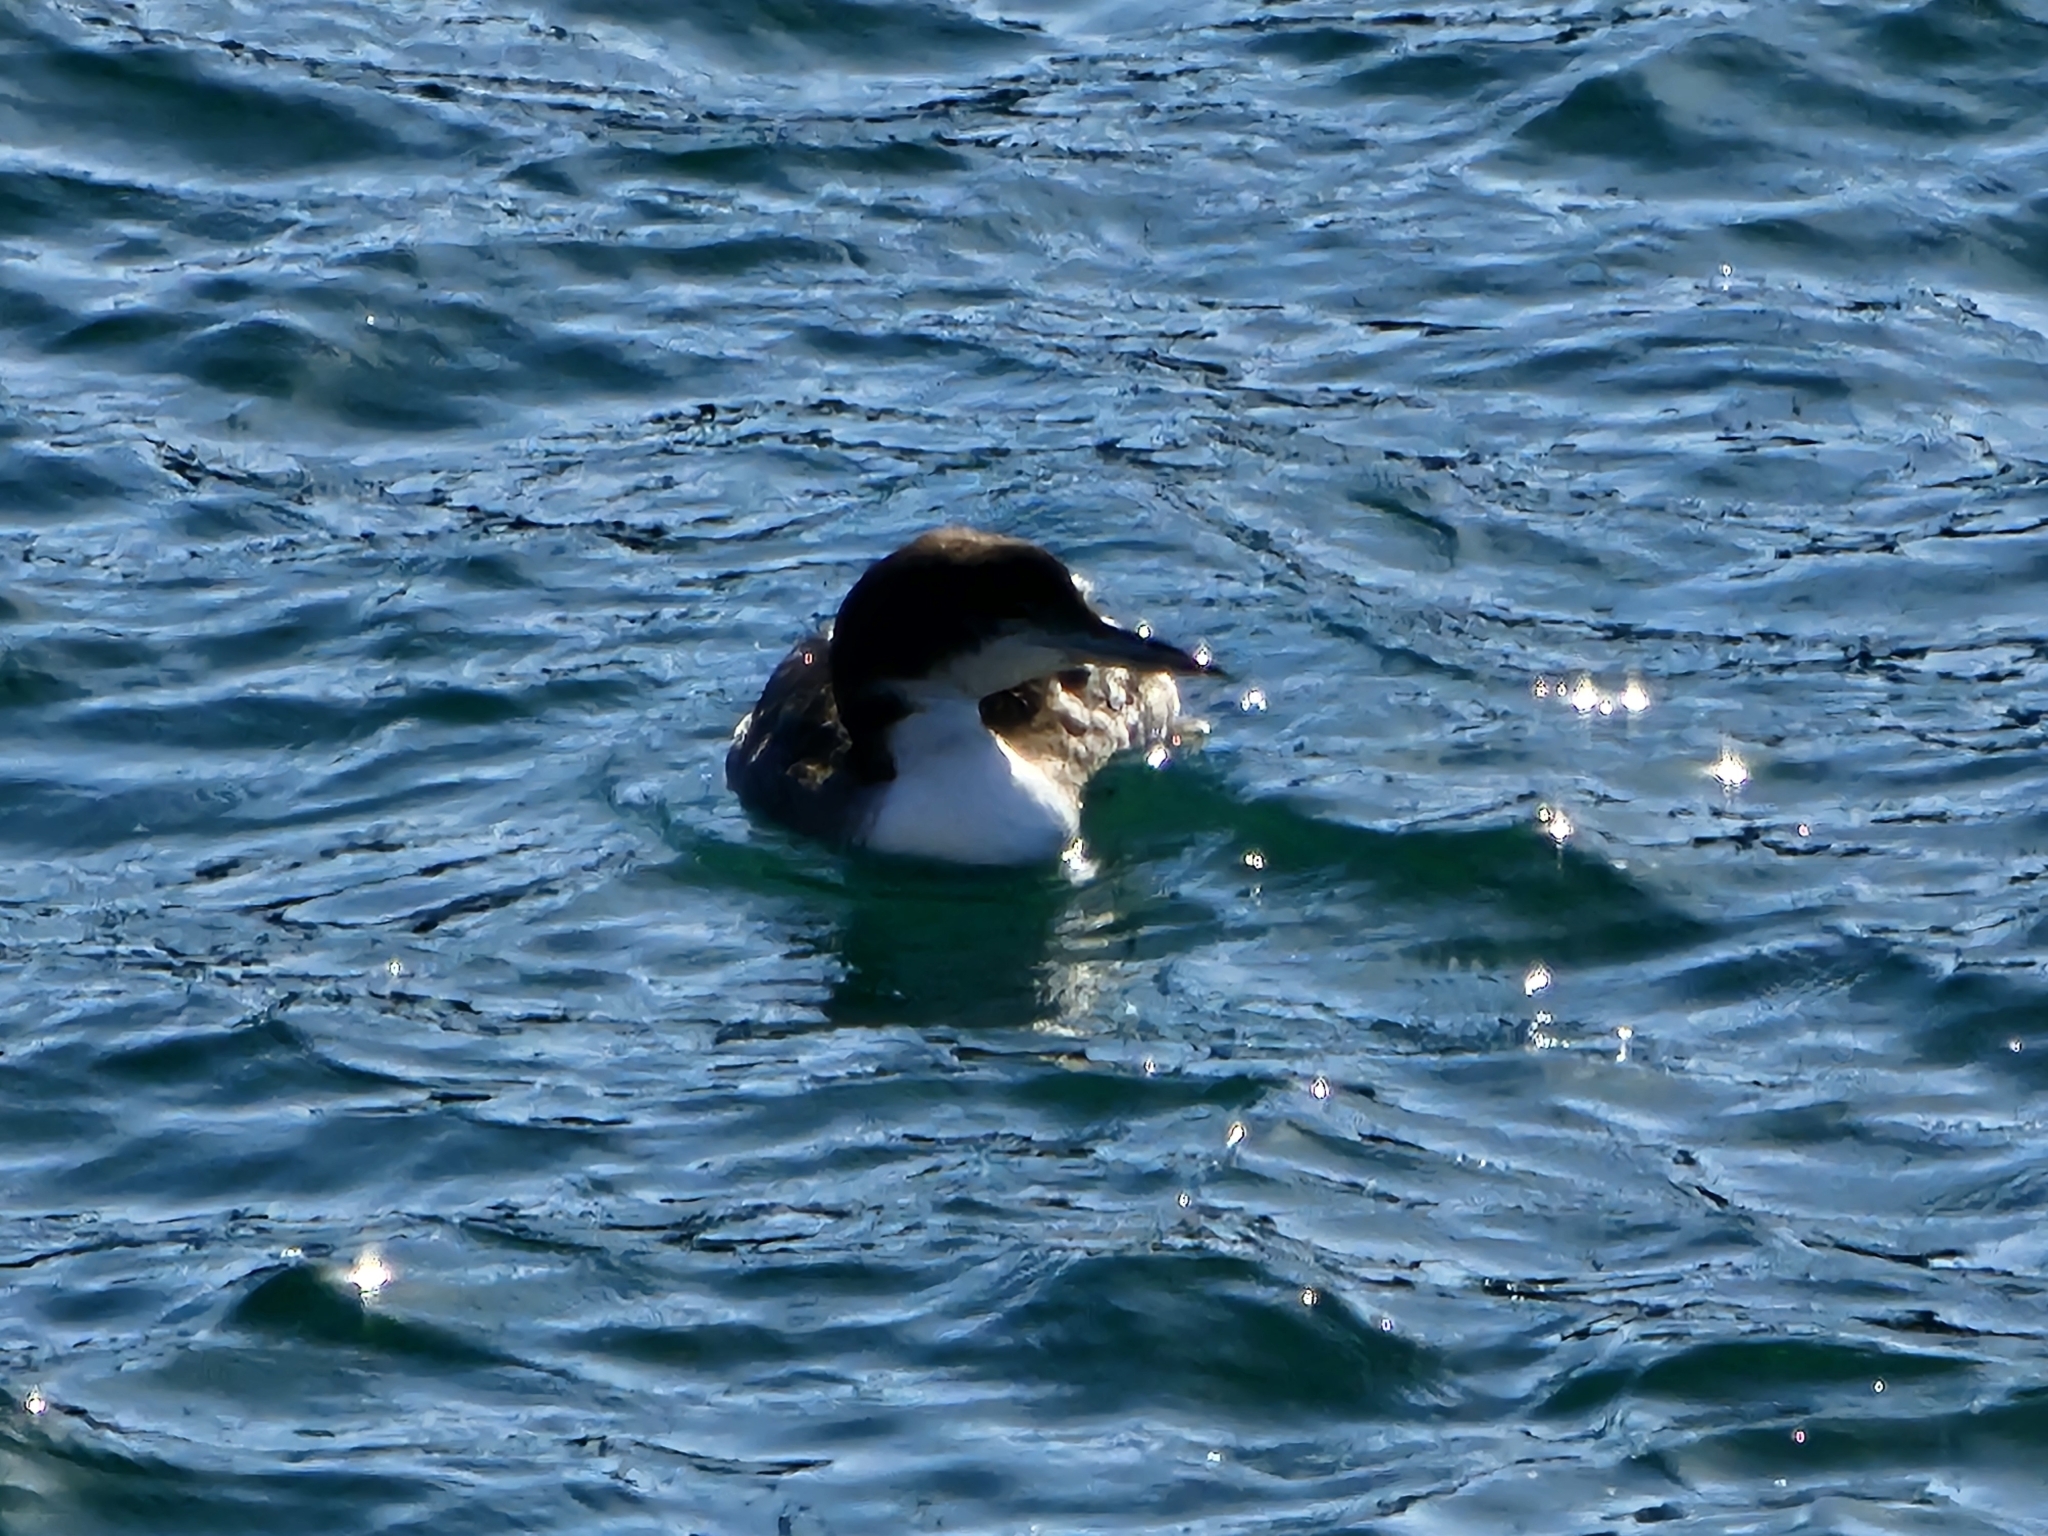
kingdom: Animalia
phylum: Chordata
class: Aves
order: Gaviiformes
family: Gaviidae
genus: Gavia
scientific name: Gavia immer
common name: Common loon
